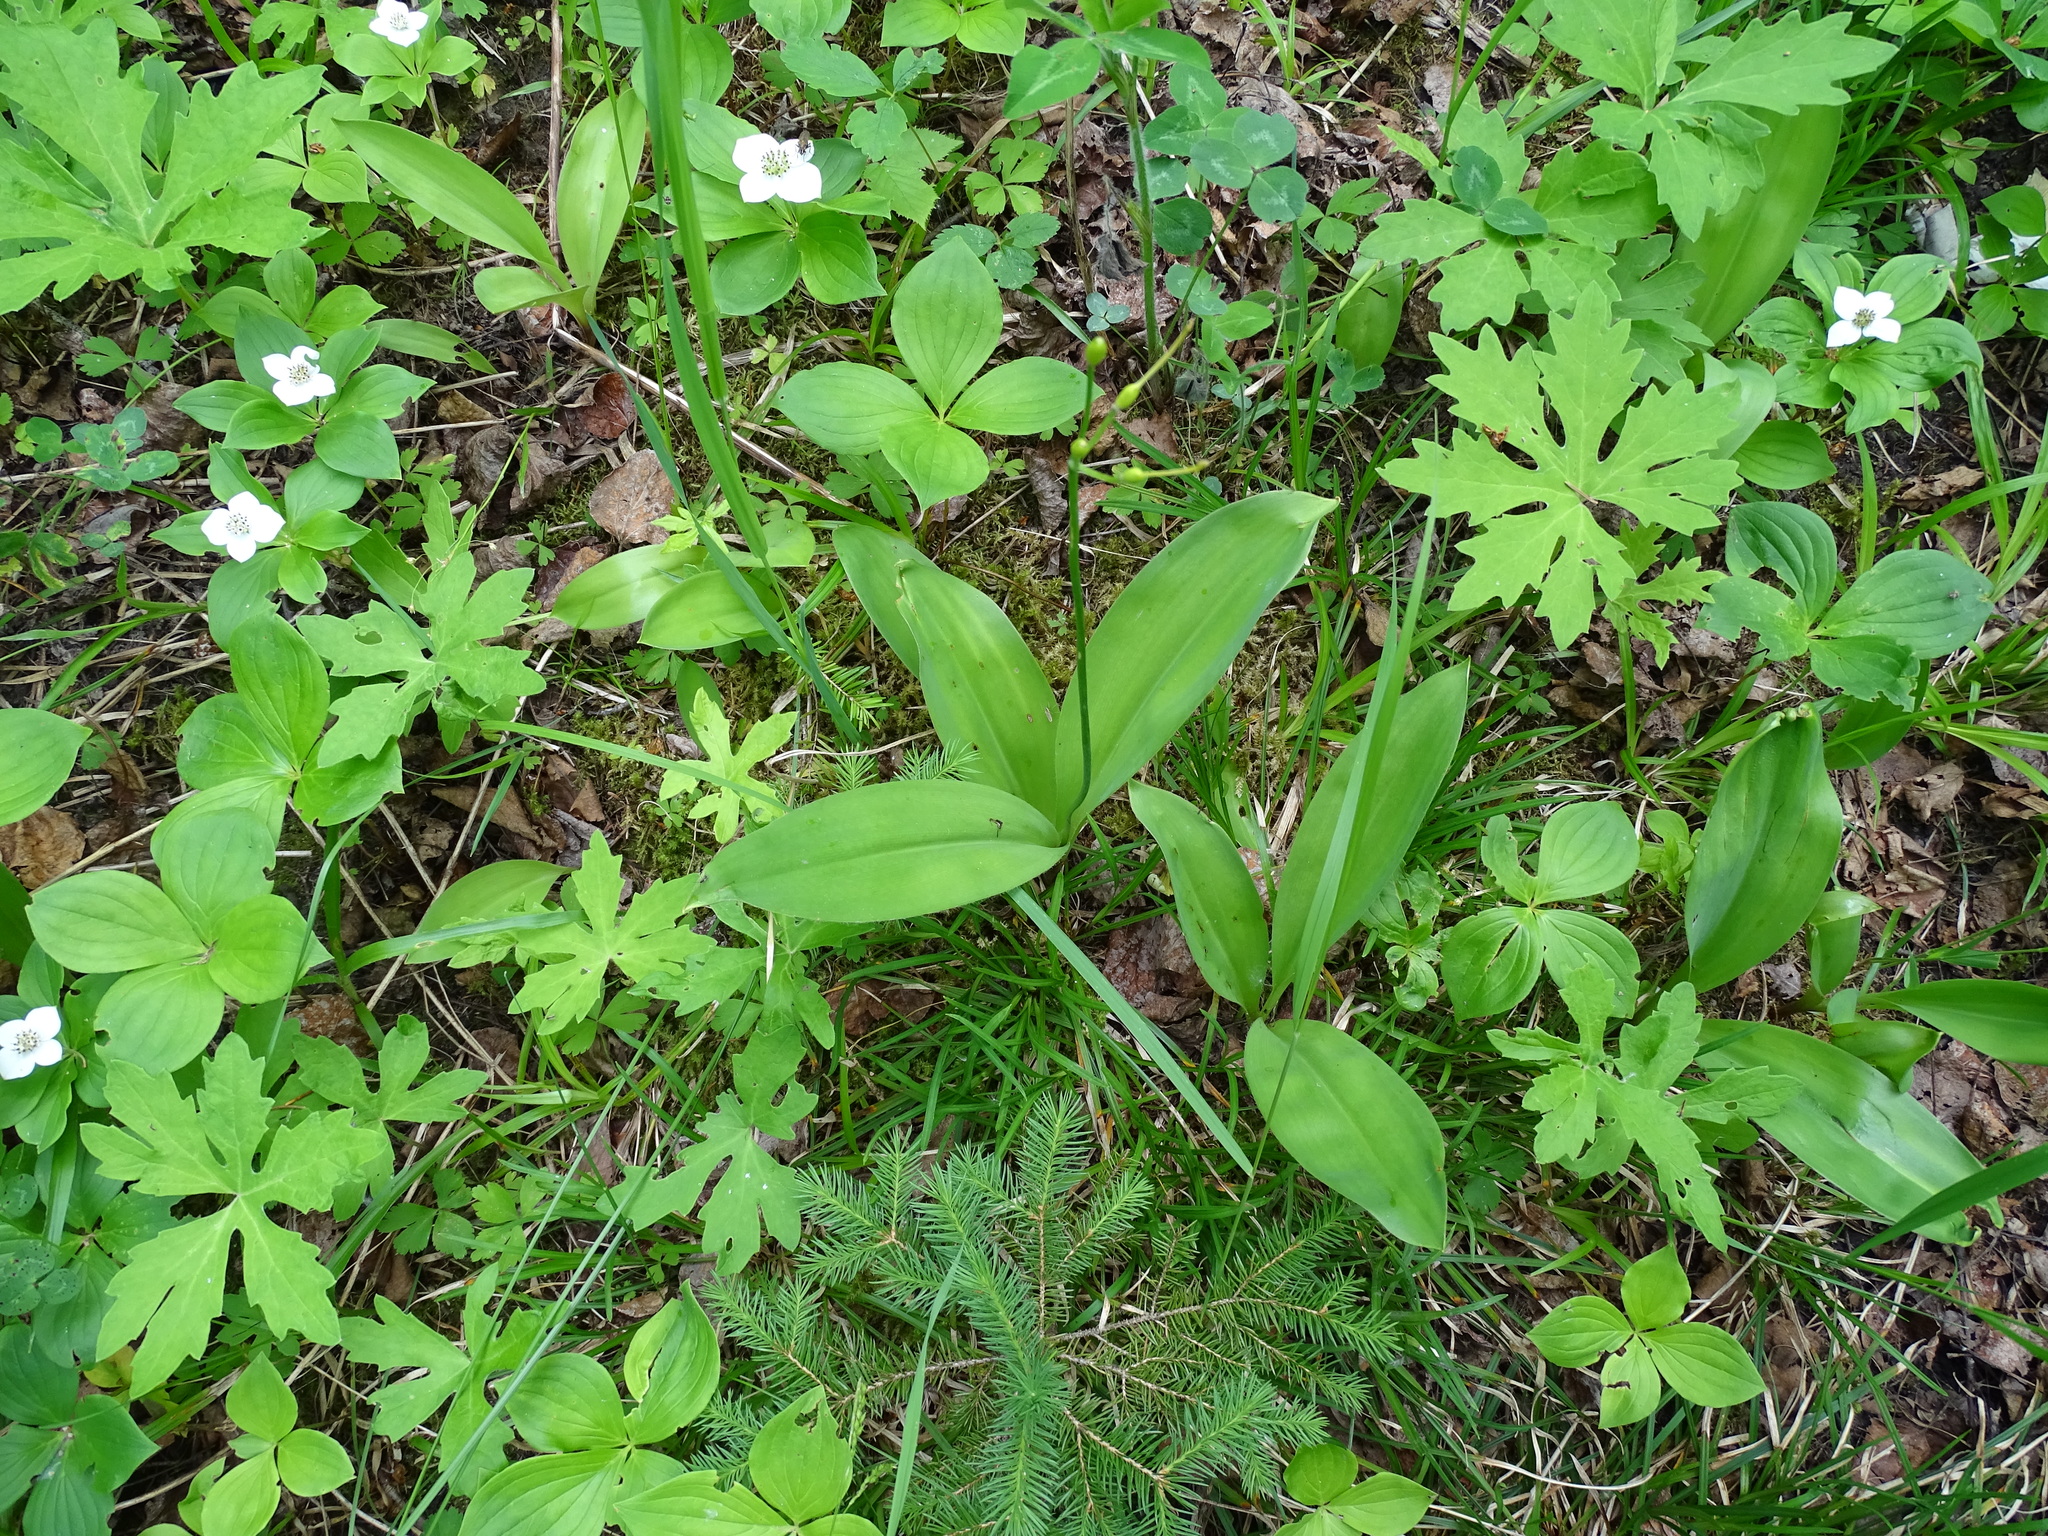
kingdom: Plantae
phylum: Tracheophyta
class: Liliopsida
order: Liliales
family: Liliaceae
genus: Clintonia
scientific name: Clintonia borealis
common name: Yellow clintonia
